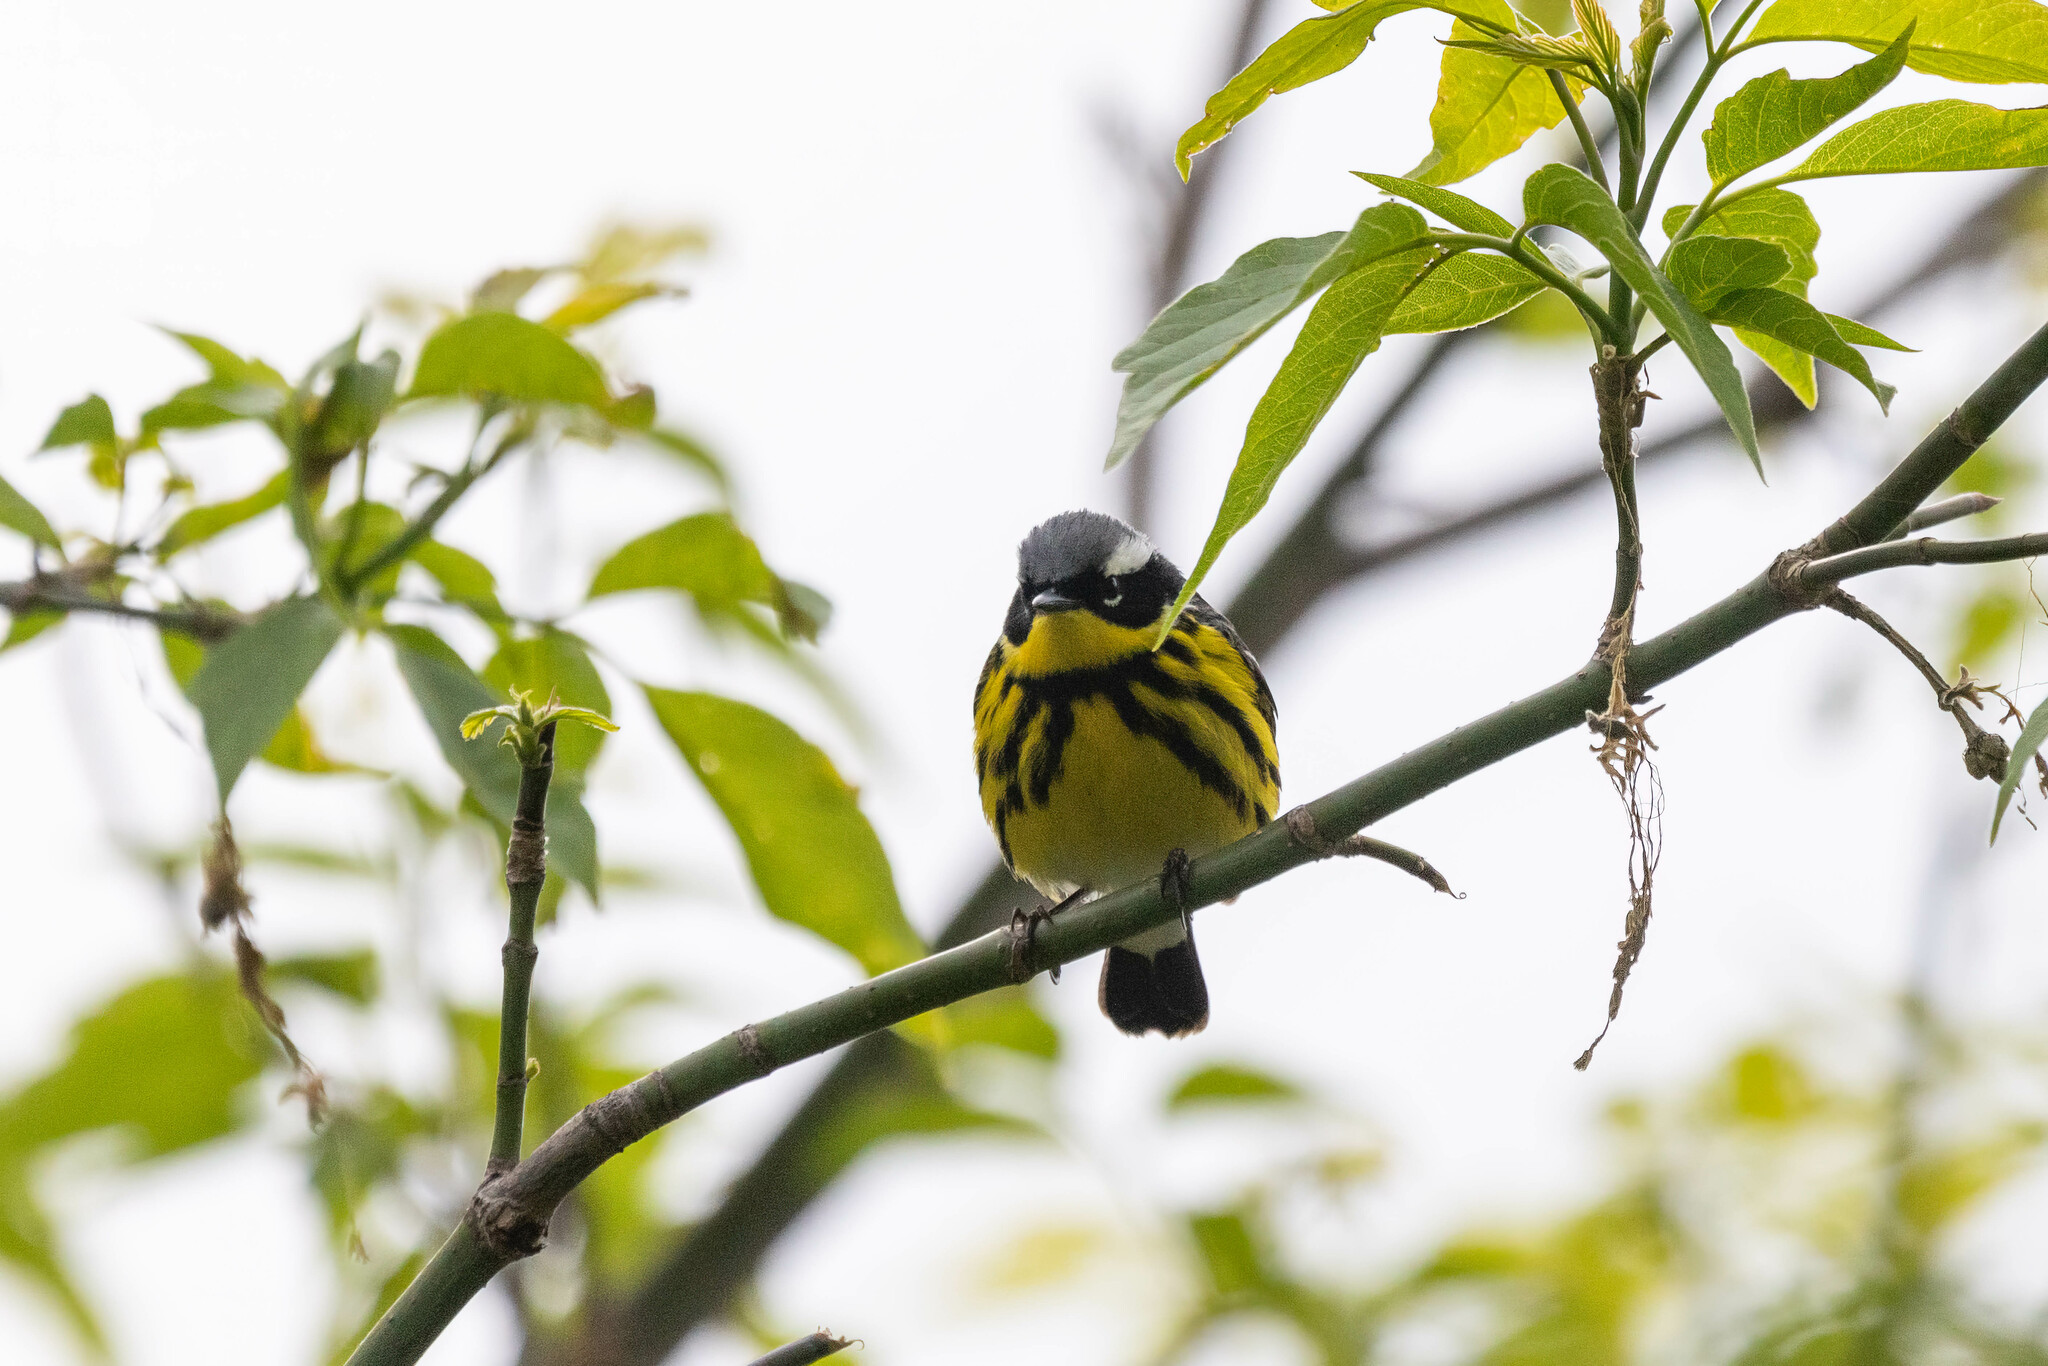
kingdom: Animalia
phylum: Chordata
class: Aves
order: Passeriformes
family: Parulidae
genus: Setophaga
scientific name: Setophaga magnolia
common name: Magnolia warbler
